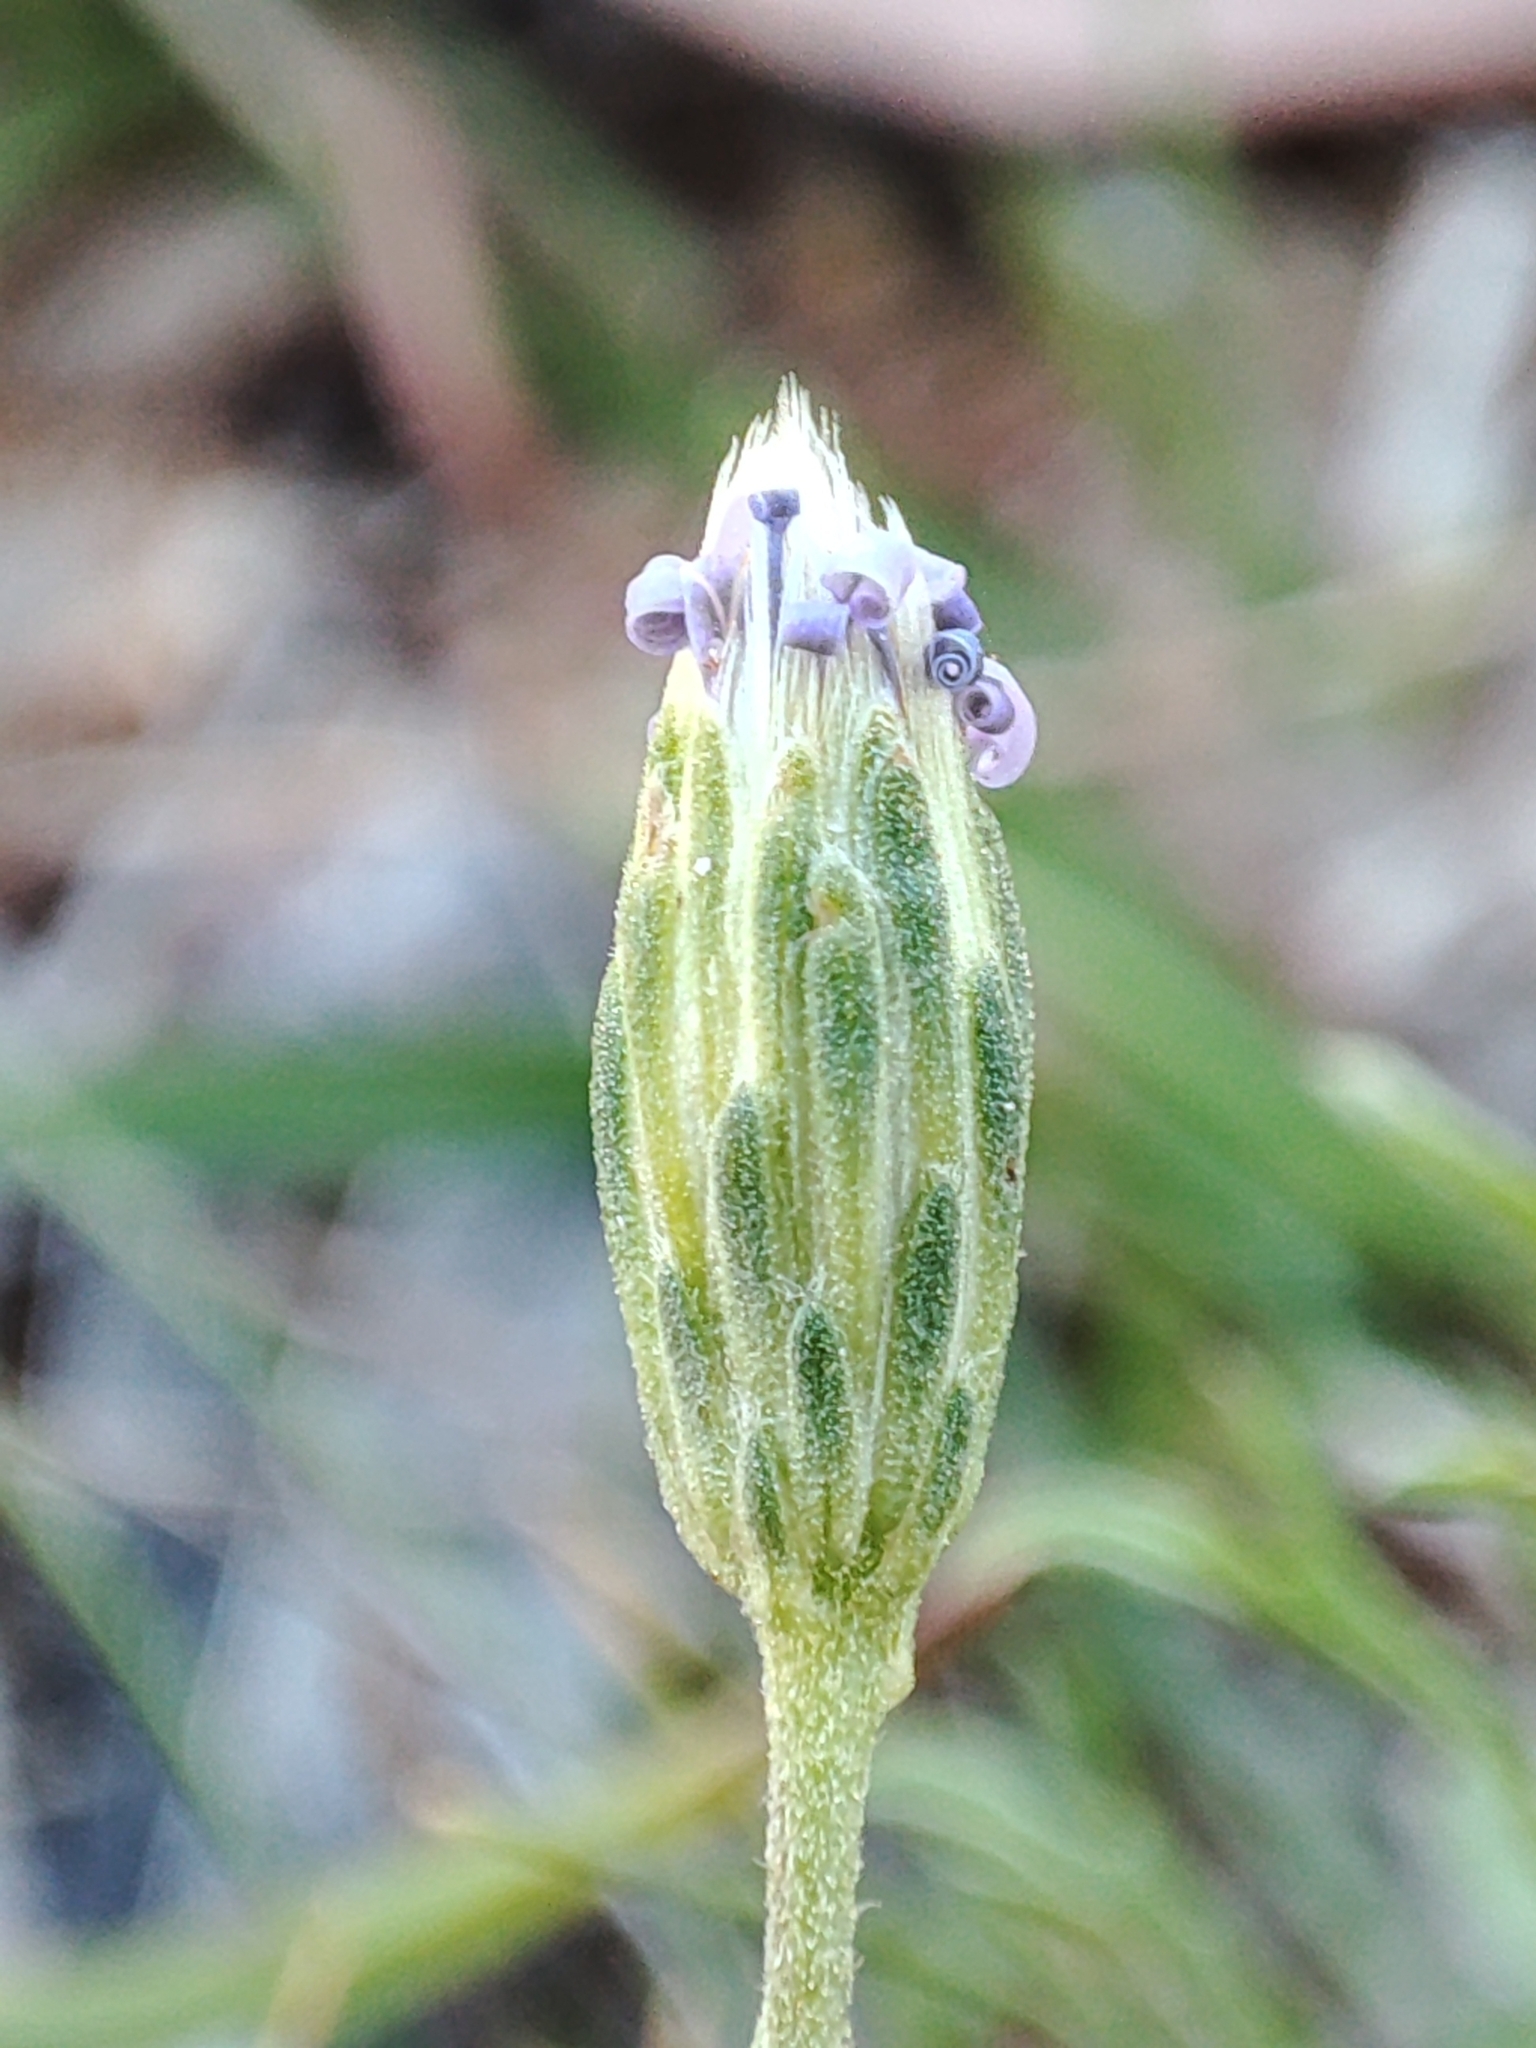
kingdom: Plantae
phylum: Tracheophyta
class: Magnoliopsida
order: Asterales
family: Asteraceae
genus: Vittadinia
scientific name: Vittadinia muelleri
